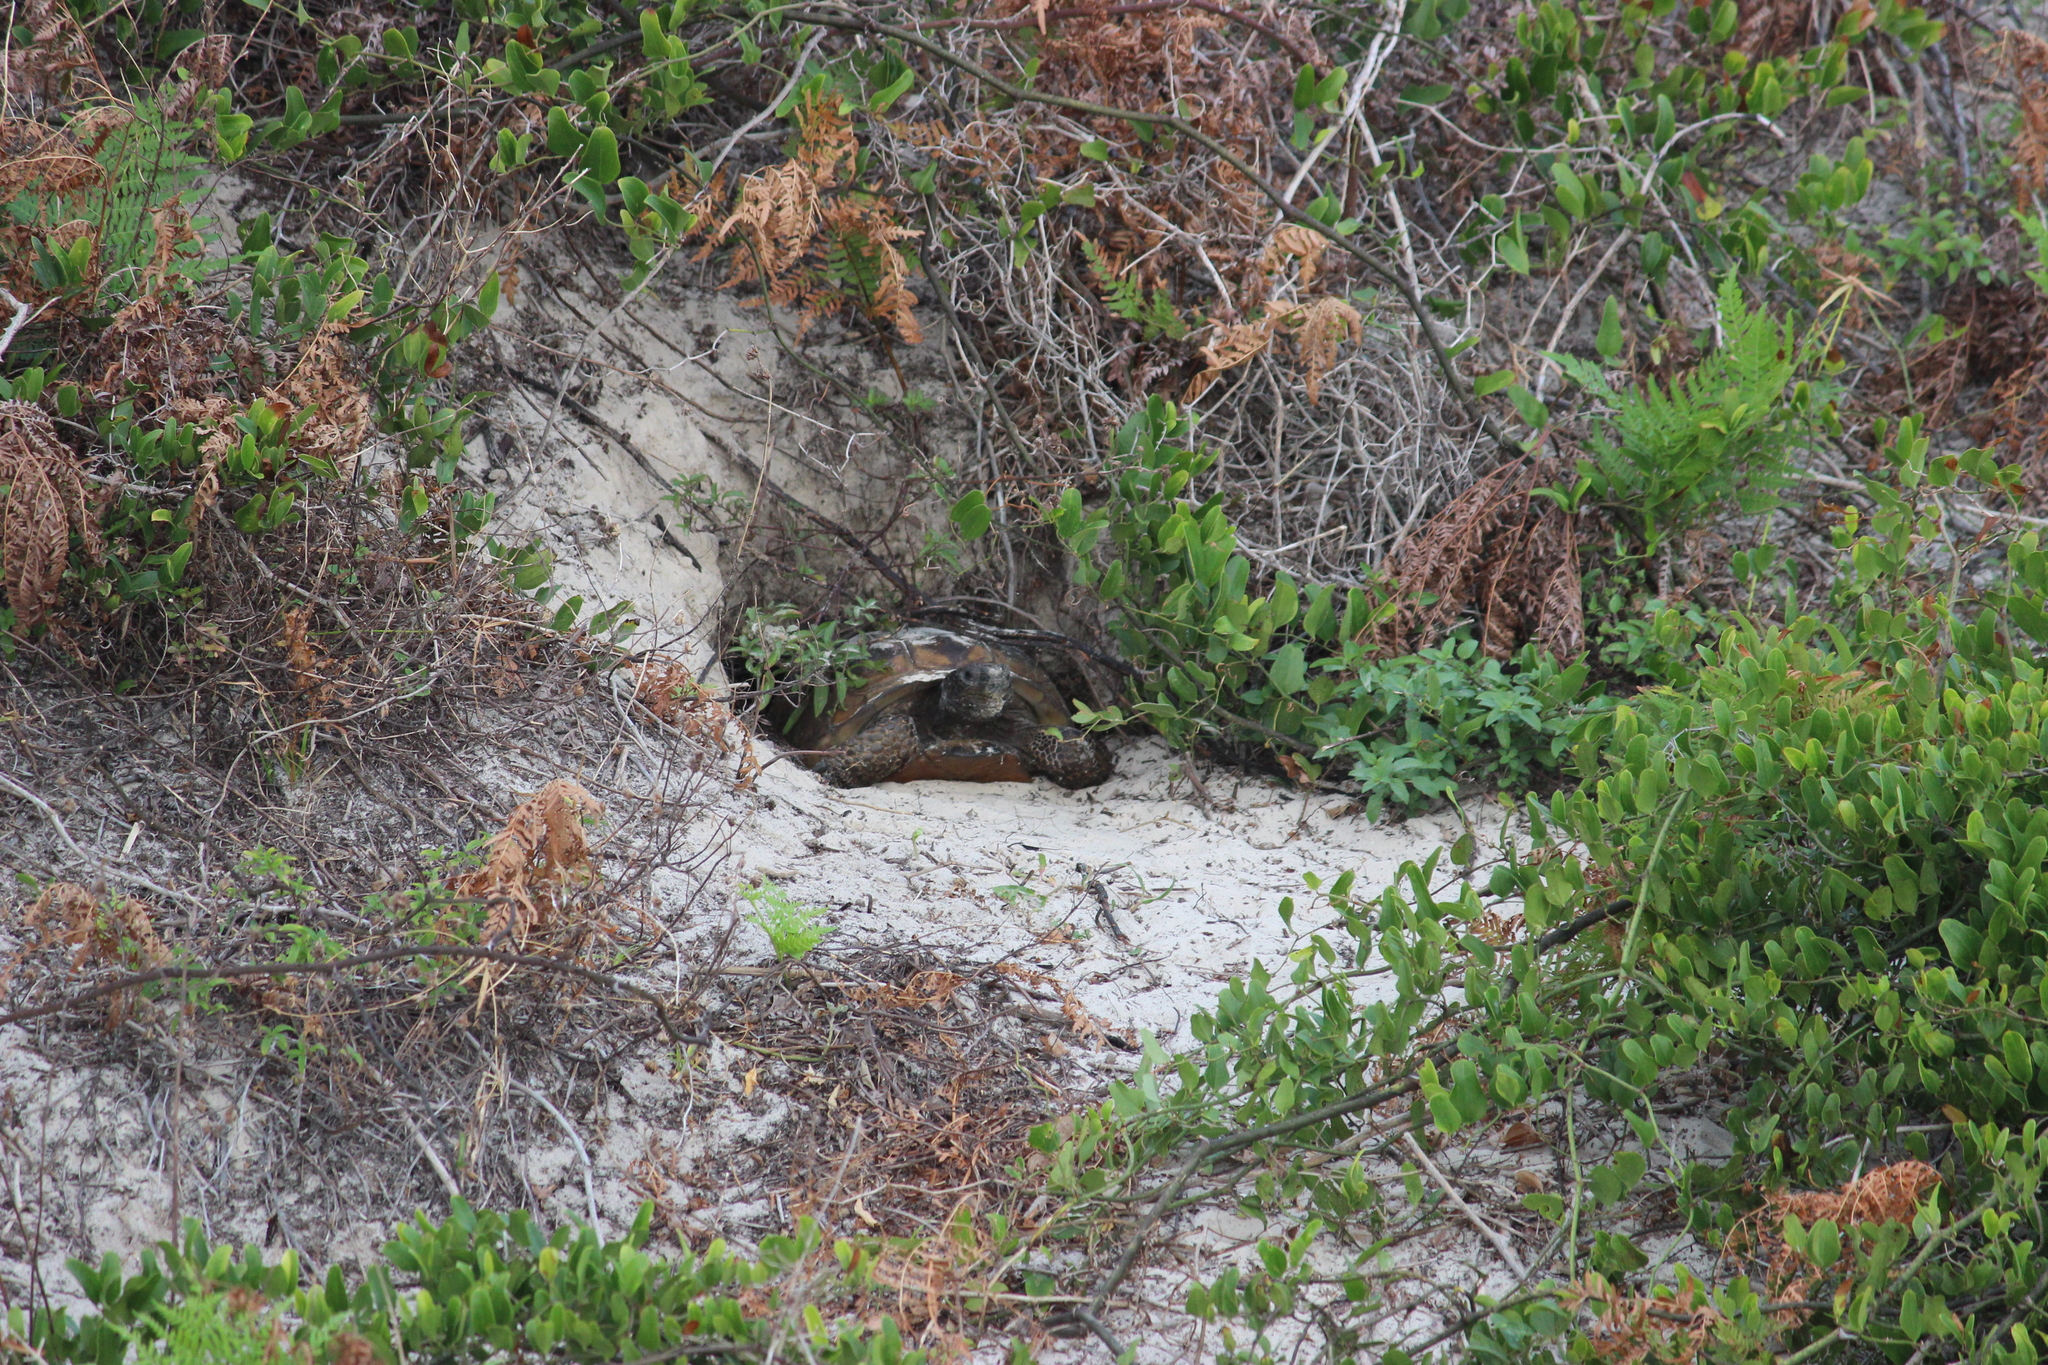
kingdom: Animalia
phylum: Chordata
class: Testudines
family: Testudinidae
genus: Gopherus
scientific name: Gopherus polyphemus
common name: Florida gopher tortoise
